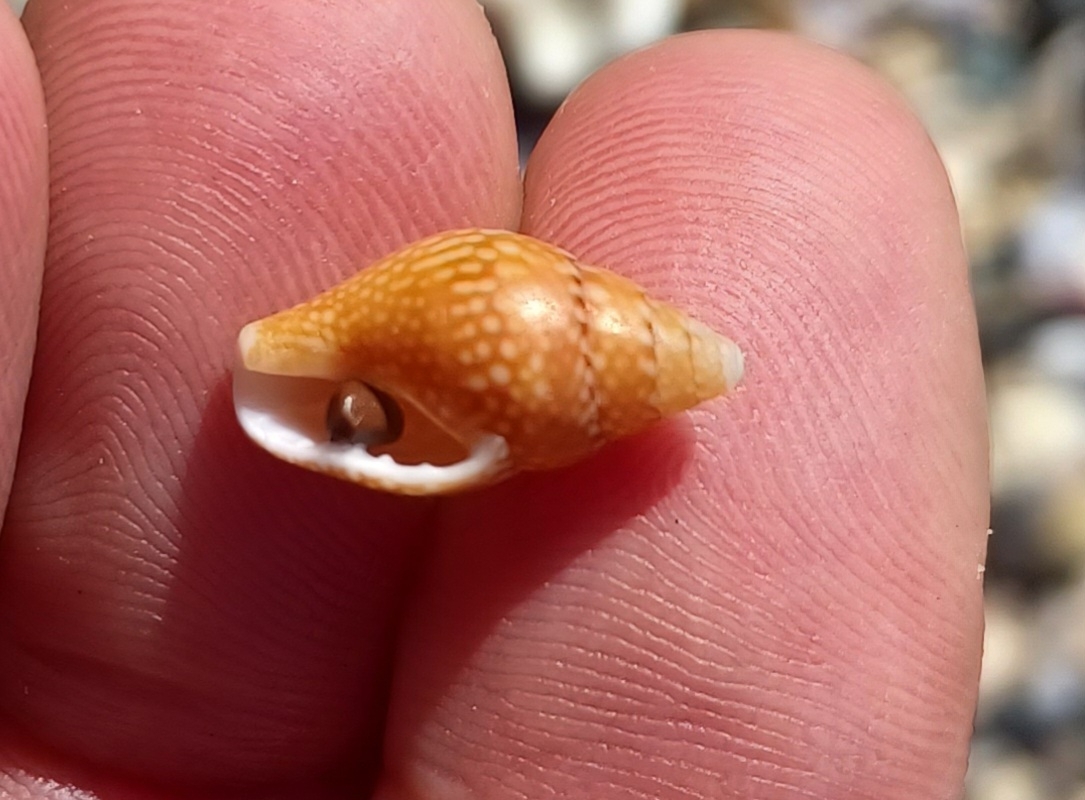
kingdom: Animalia
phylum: Mollusca
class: Gastropoda
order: Neogastropoda
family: Columbellidae
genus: Pardalinops de
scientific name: Pardalinops de Pardalinops testudinaria
